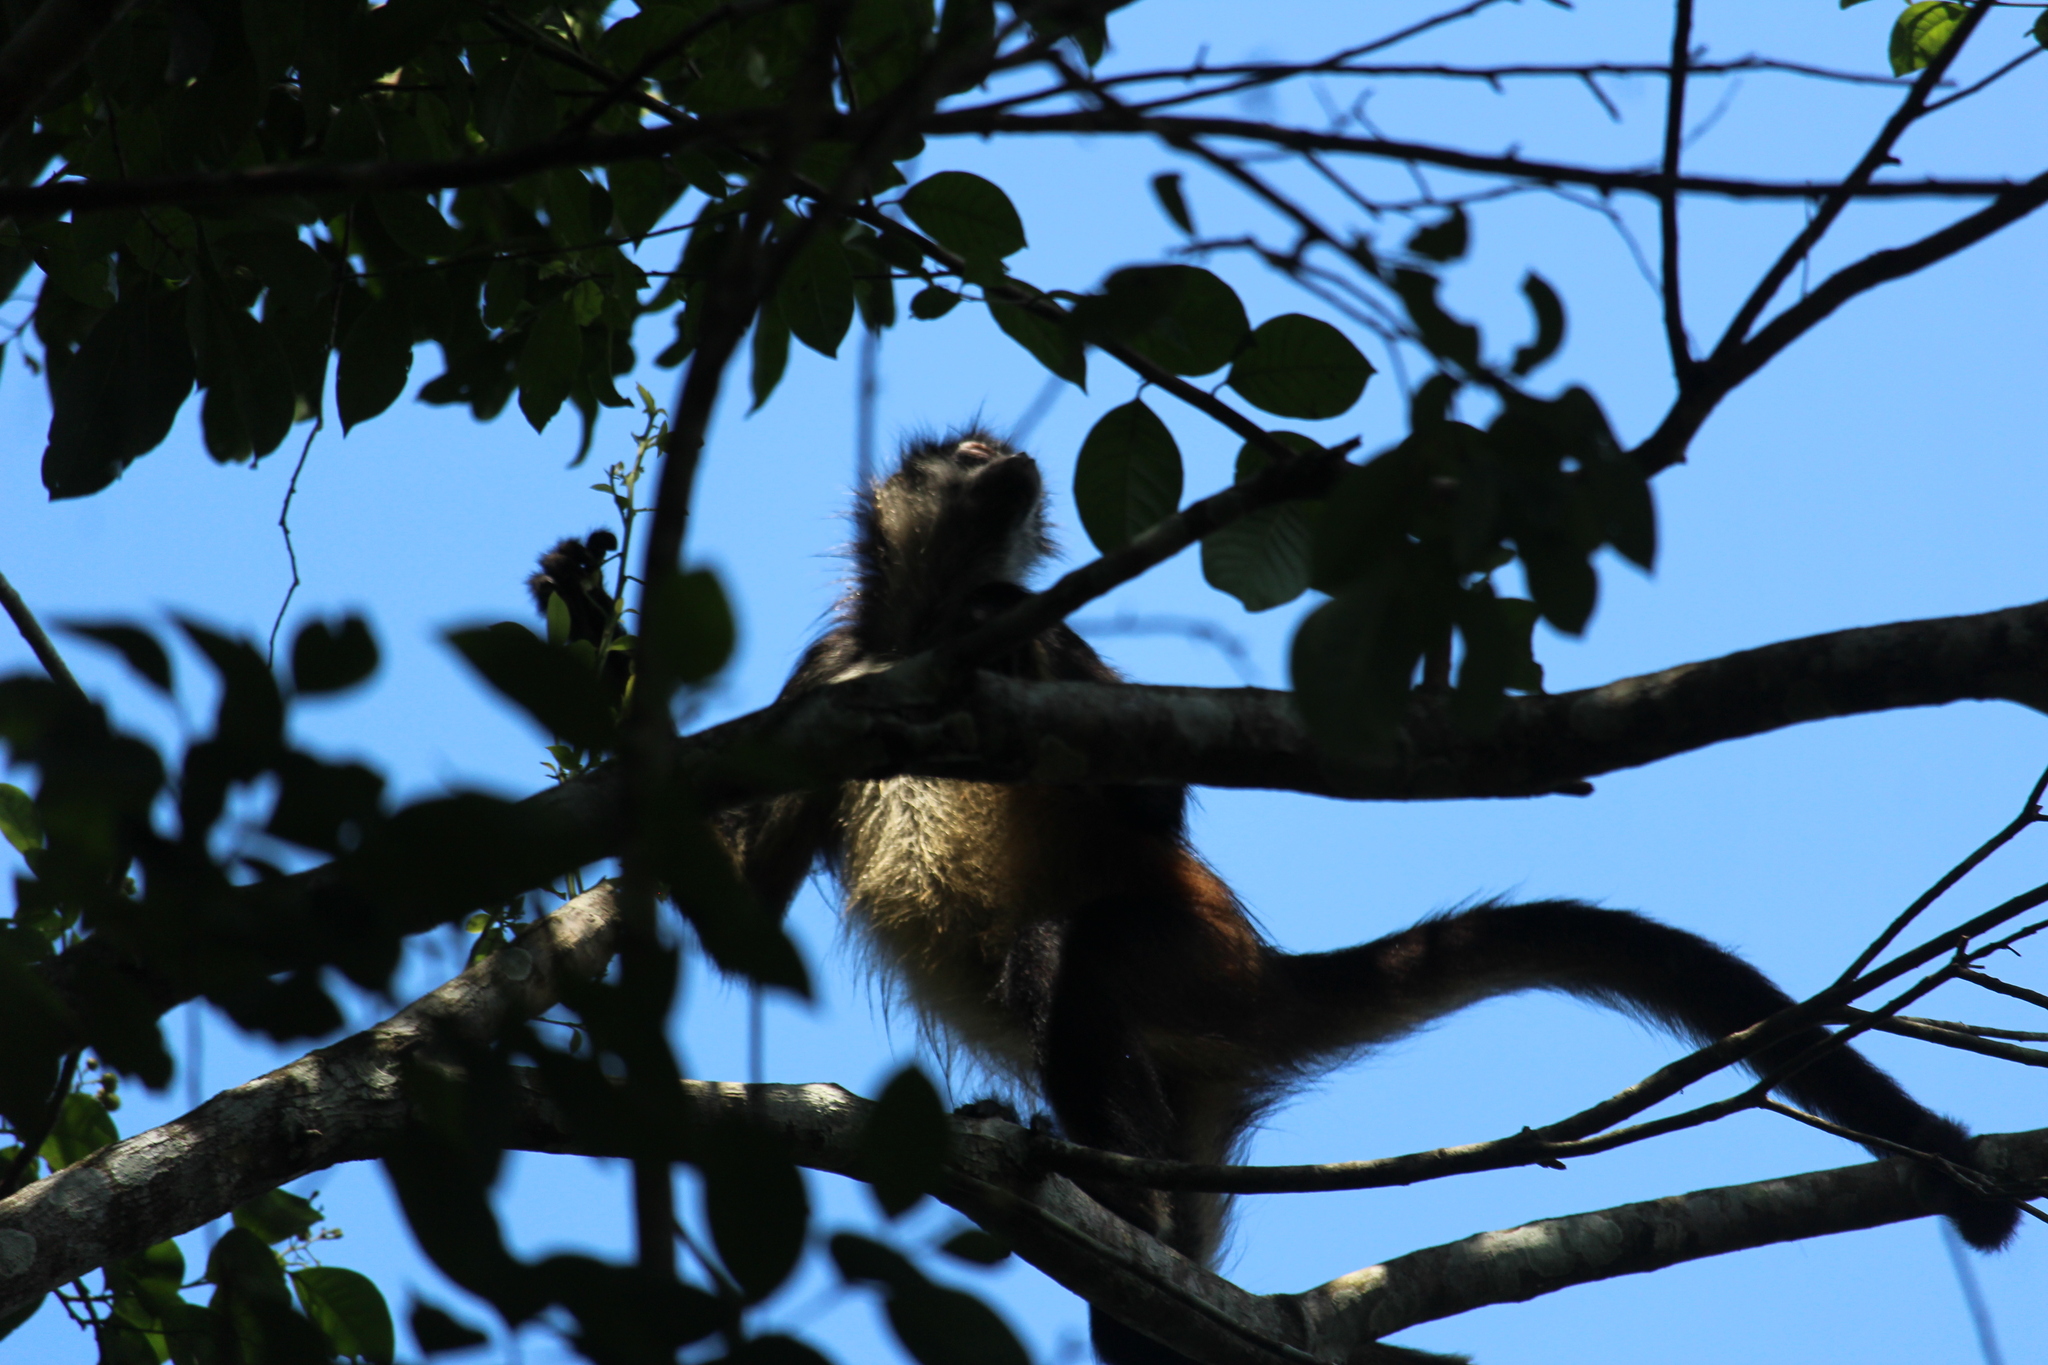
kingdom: Animalia
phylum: Chordata
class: Mammalia
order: Primates
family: Atelidae
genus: Ateles
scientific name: Ateles geoffroyi
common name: Black-handed spider monkey
